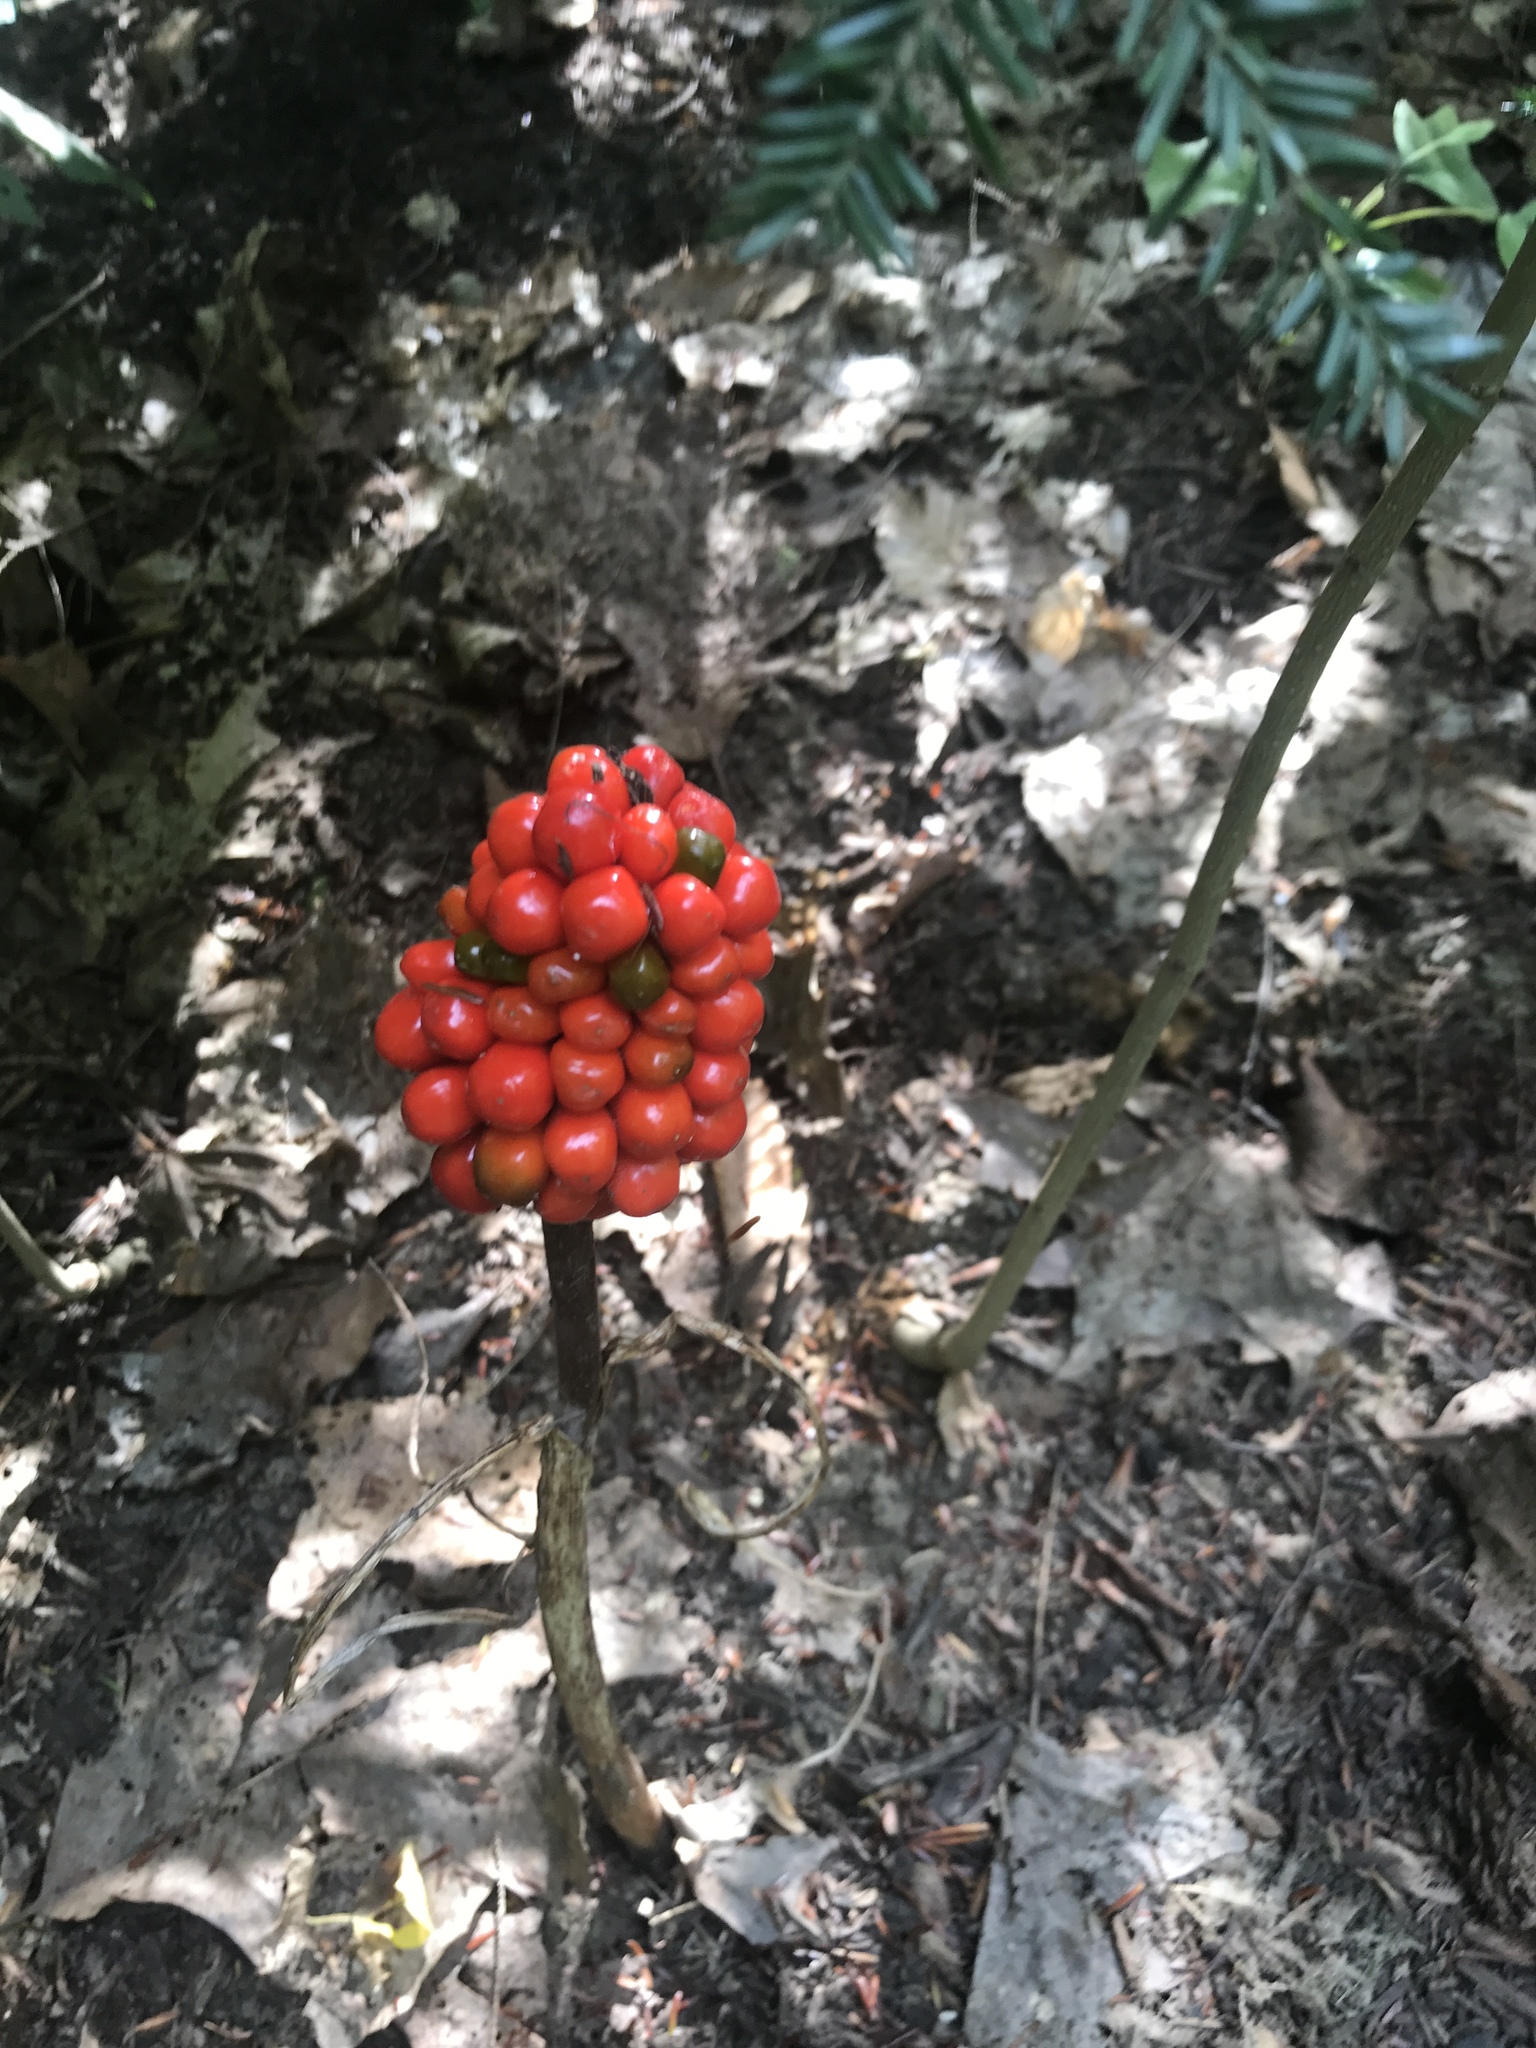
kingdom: Plantae
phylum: Tracheophyta
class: Liliopsida
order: Alismatales
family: Araceae
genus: Arisaema
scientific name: Arisaema triphyllum
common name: Jack-in-the-pulpit
